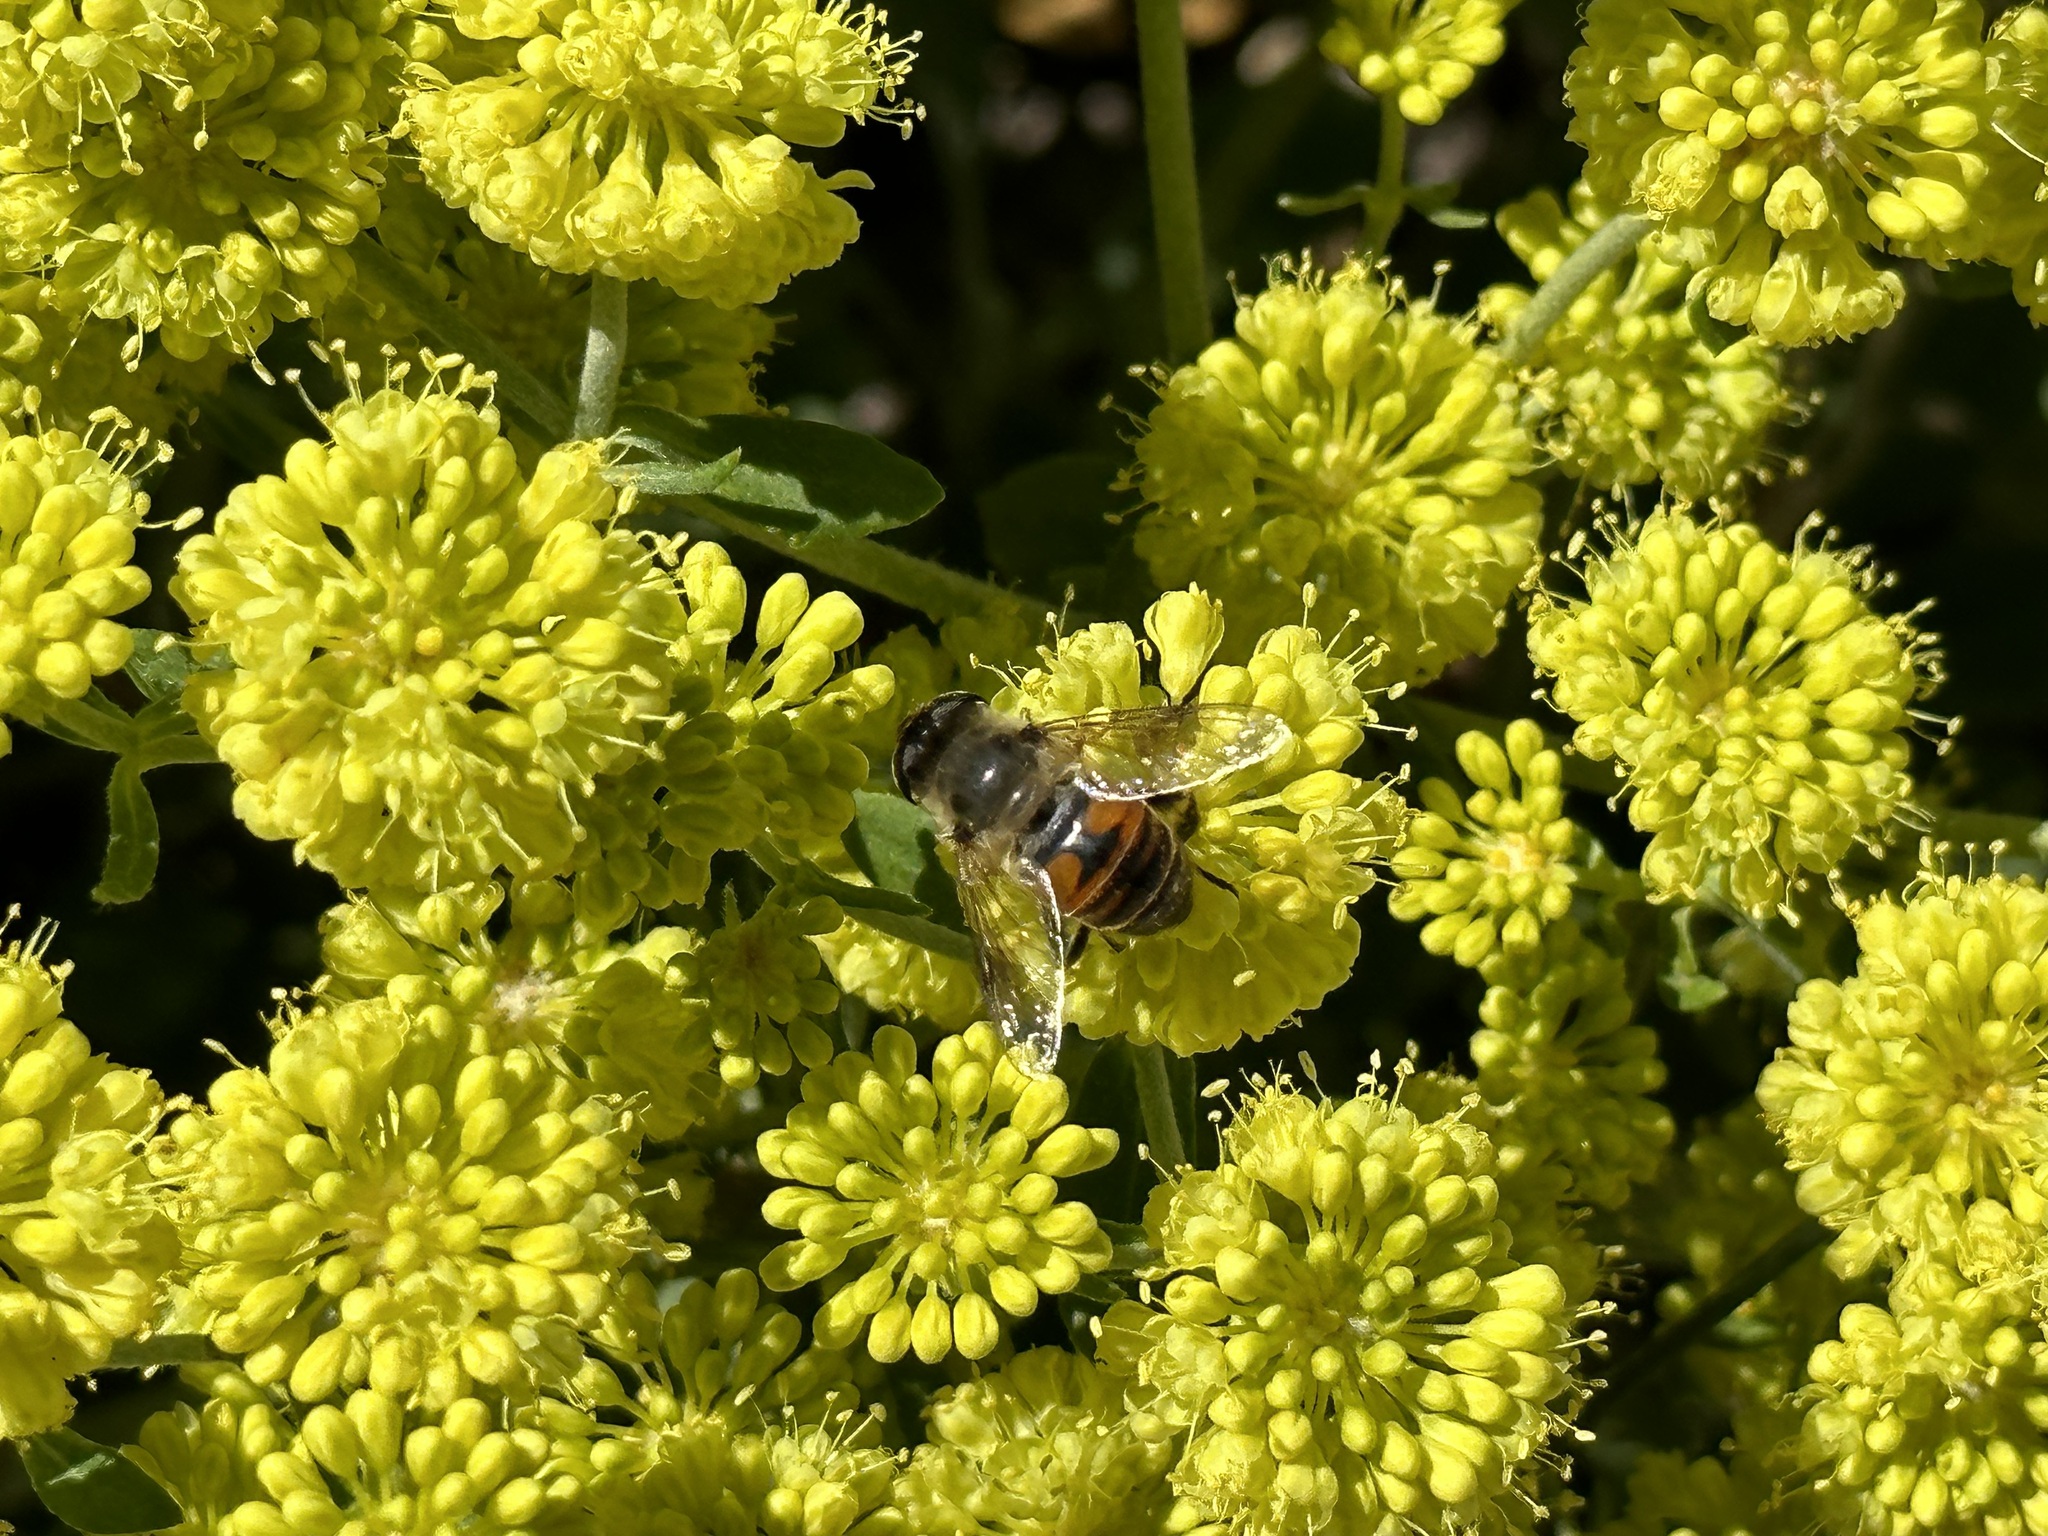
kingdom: Animalia
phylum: Arthropoda
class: Insecta
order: Diptera
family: Syrphidae
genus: Eristalis
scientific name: Eristalis tenax
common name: Drone fly
